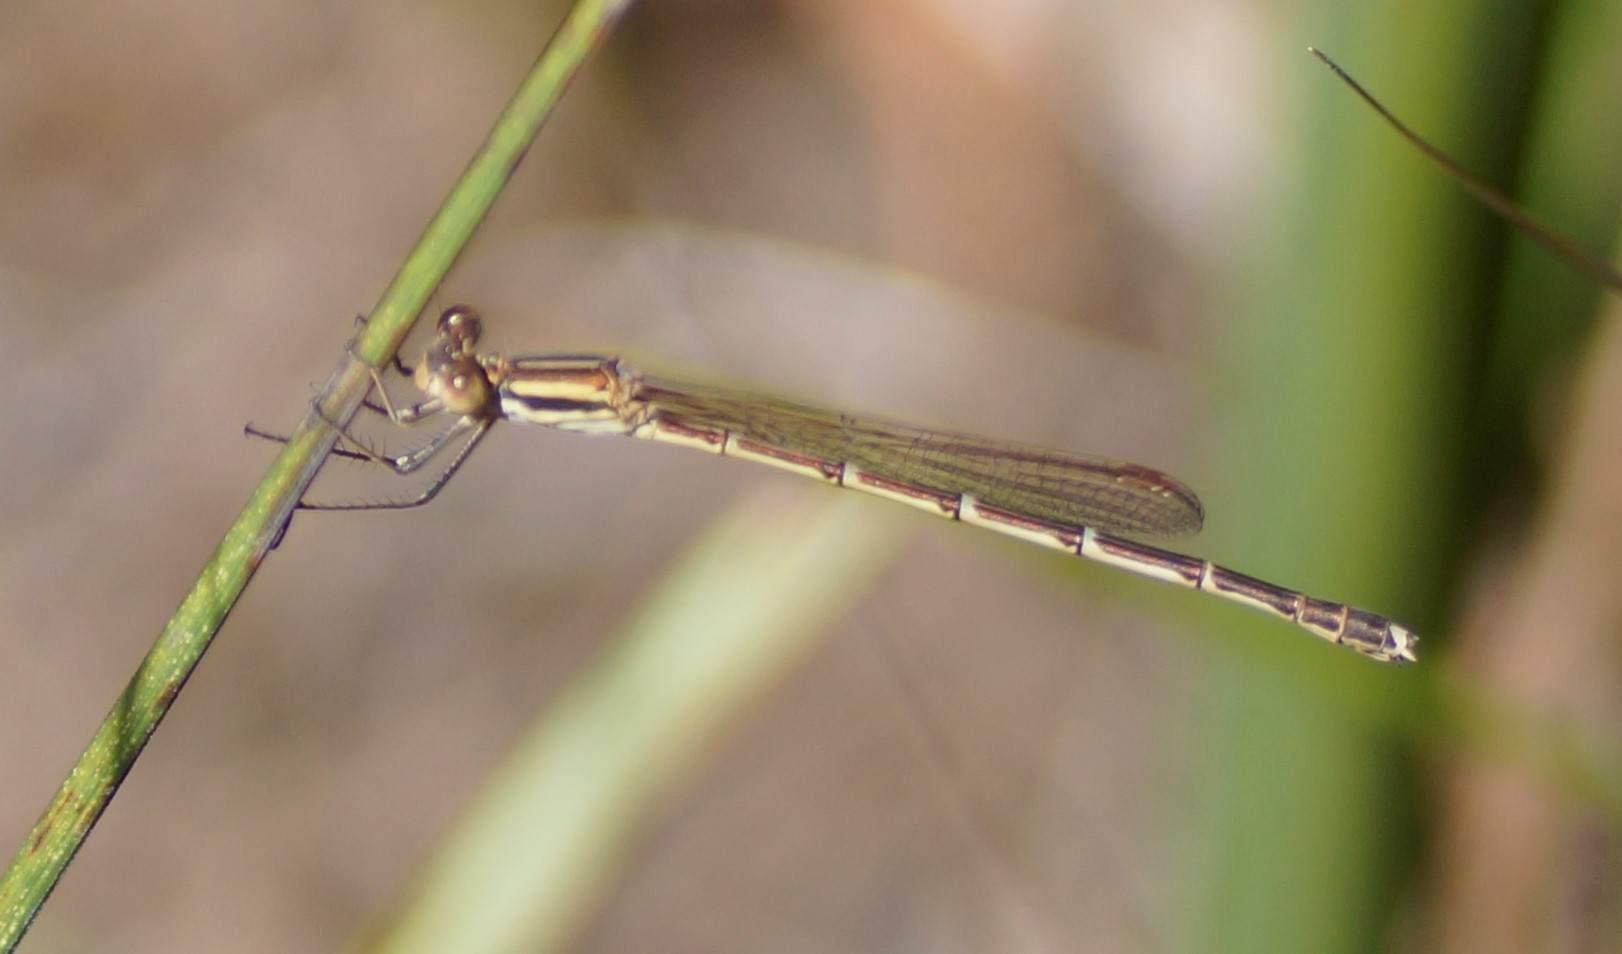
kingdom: Animalia
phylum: Arthropoda
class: Insecta
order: Odonata
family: Lestidae
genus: Austrolestes
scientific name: Austrolestes analis
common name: Slender ringtail
